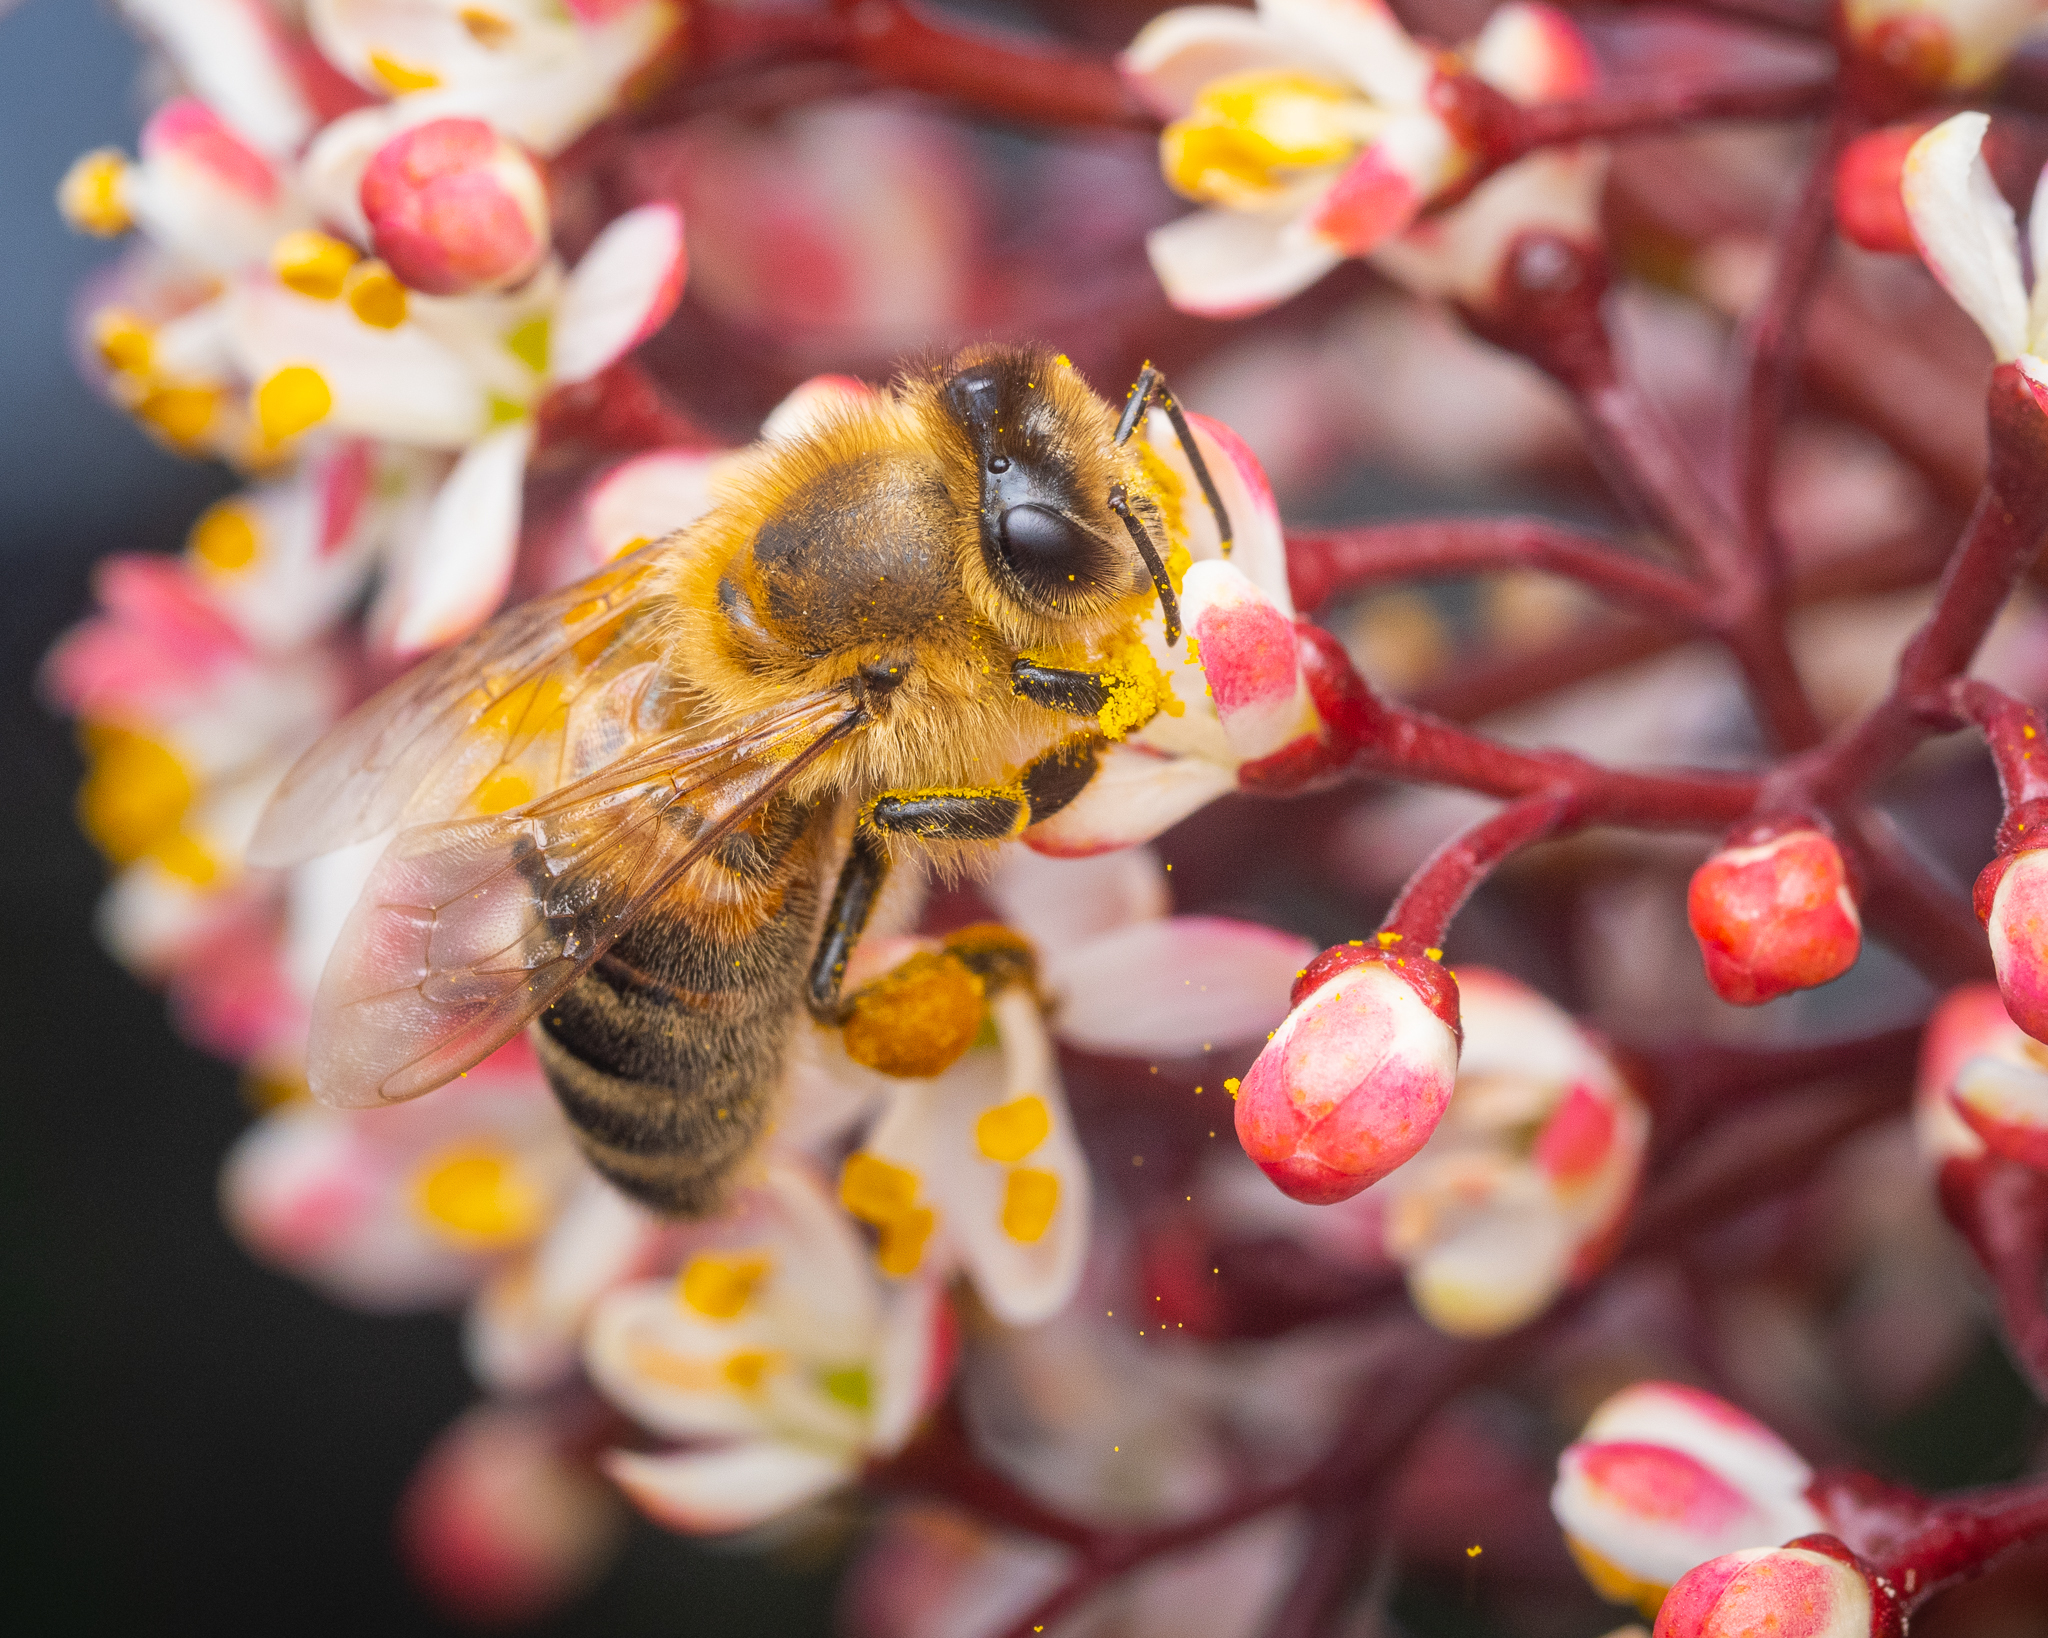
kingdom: Animalia
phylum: Arthropoda
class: Insecta
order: Hymenoptera
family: Apidae
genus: Apis
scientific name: Apis mellifera
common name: Honey bee
